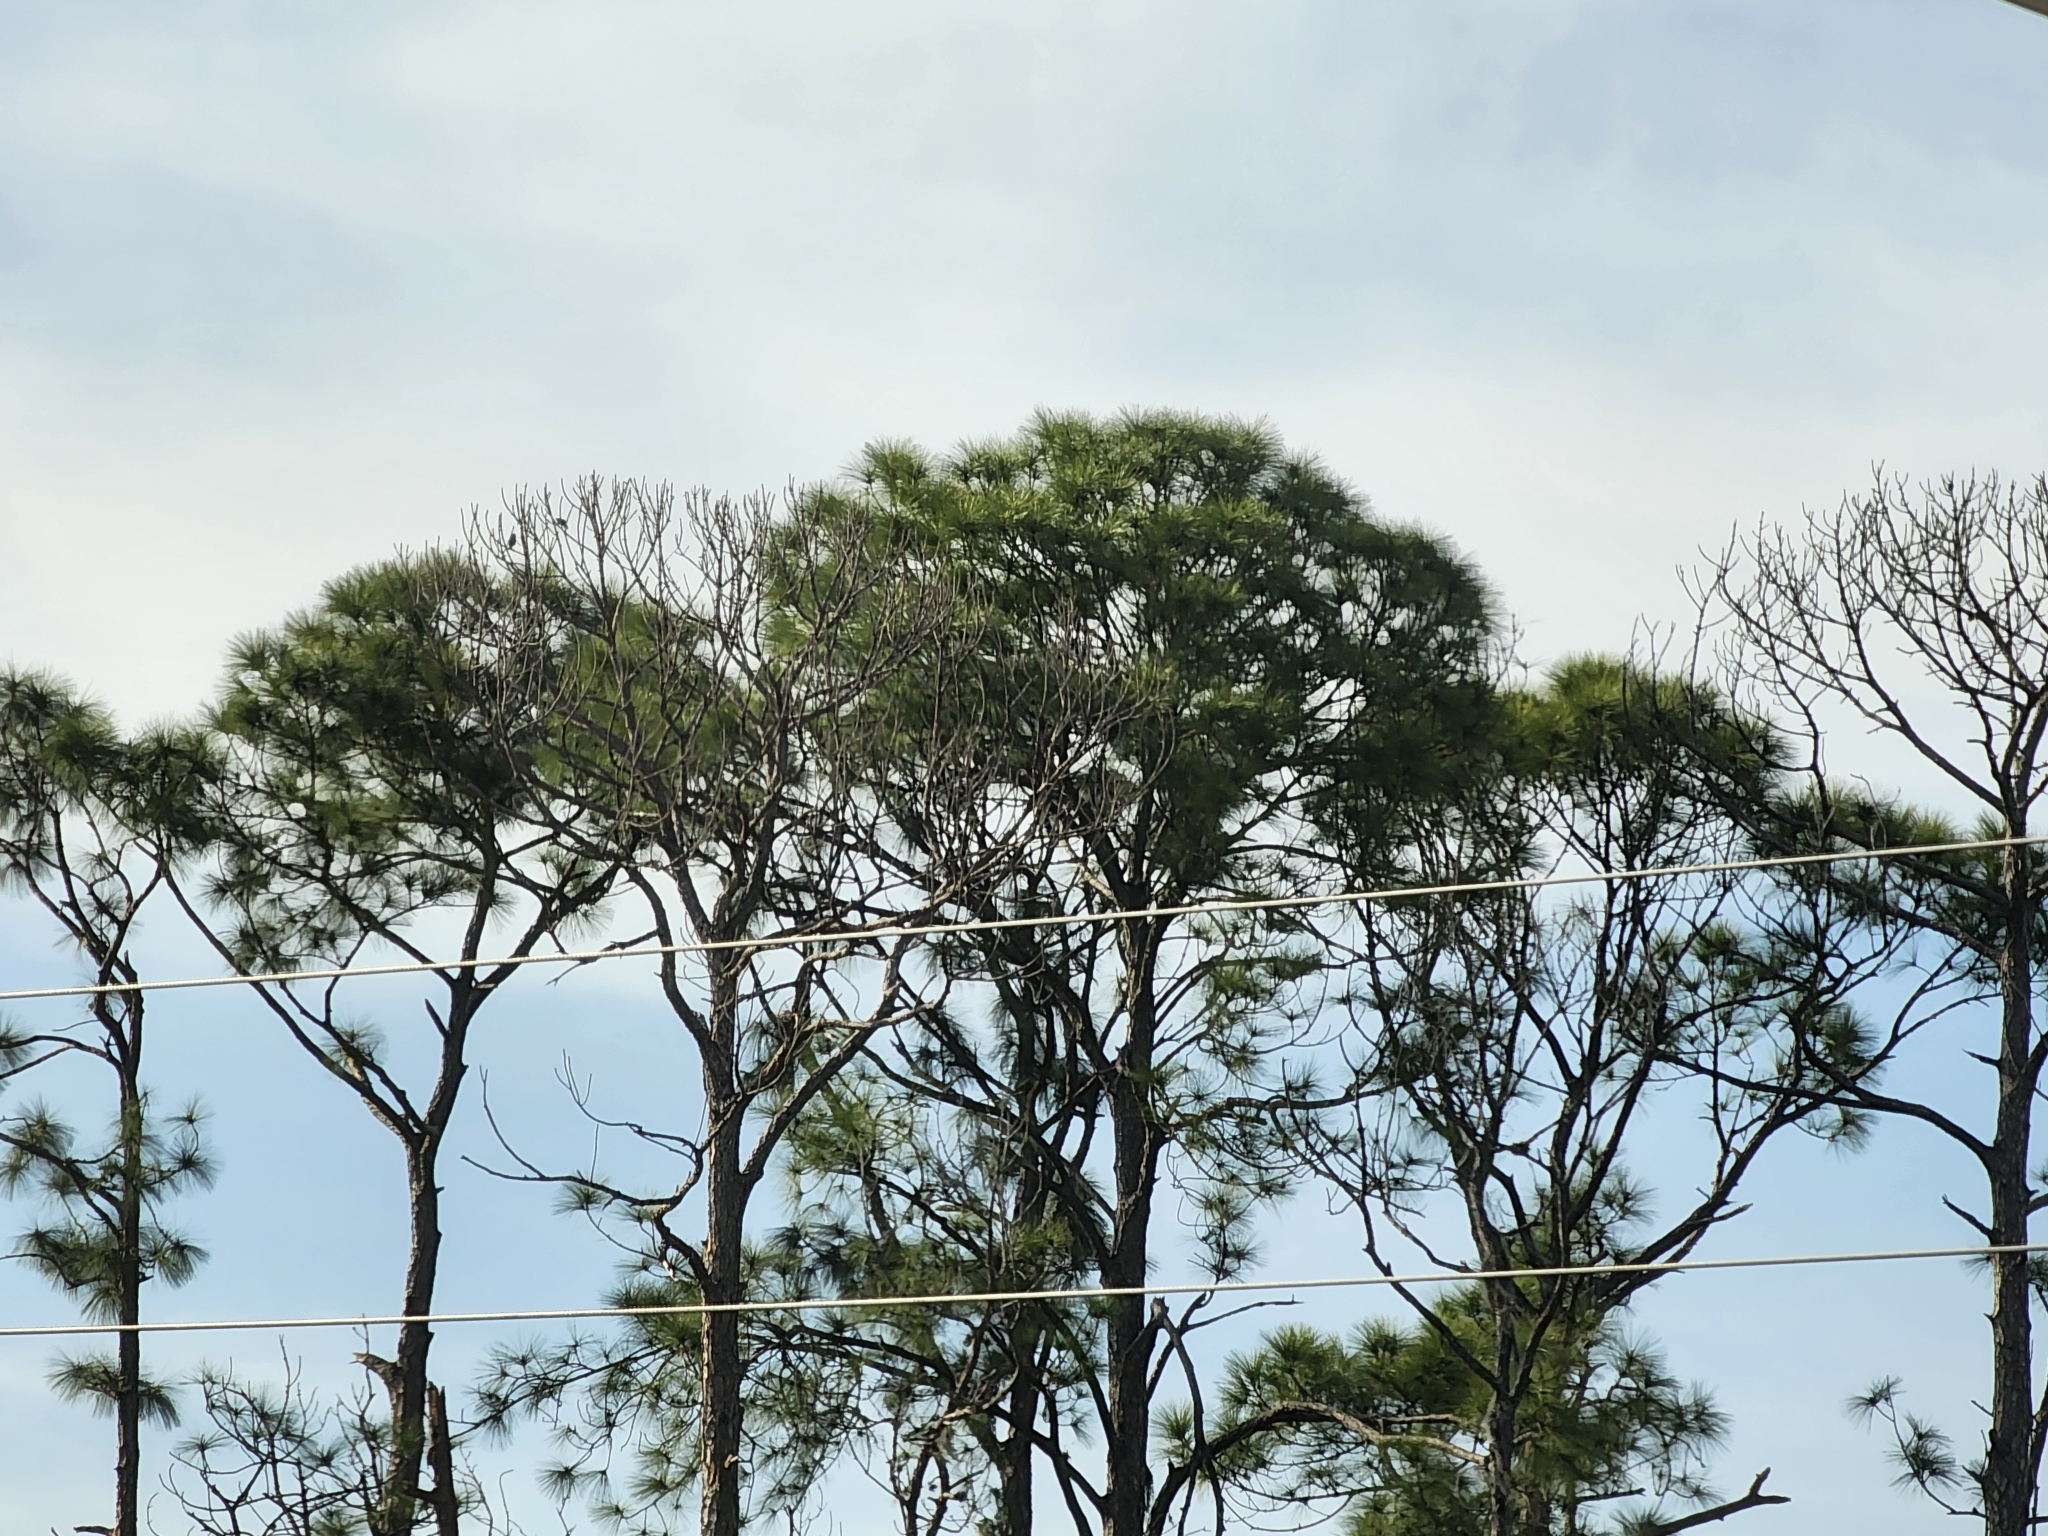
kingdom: Plantae
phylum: Tracheophyta
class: Pinopsida
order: Pinales
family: Pinaceae
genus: Pinus
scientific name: Pinus elliottii
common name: Slash pine
